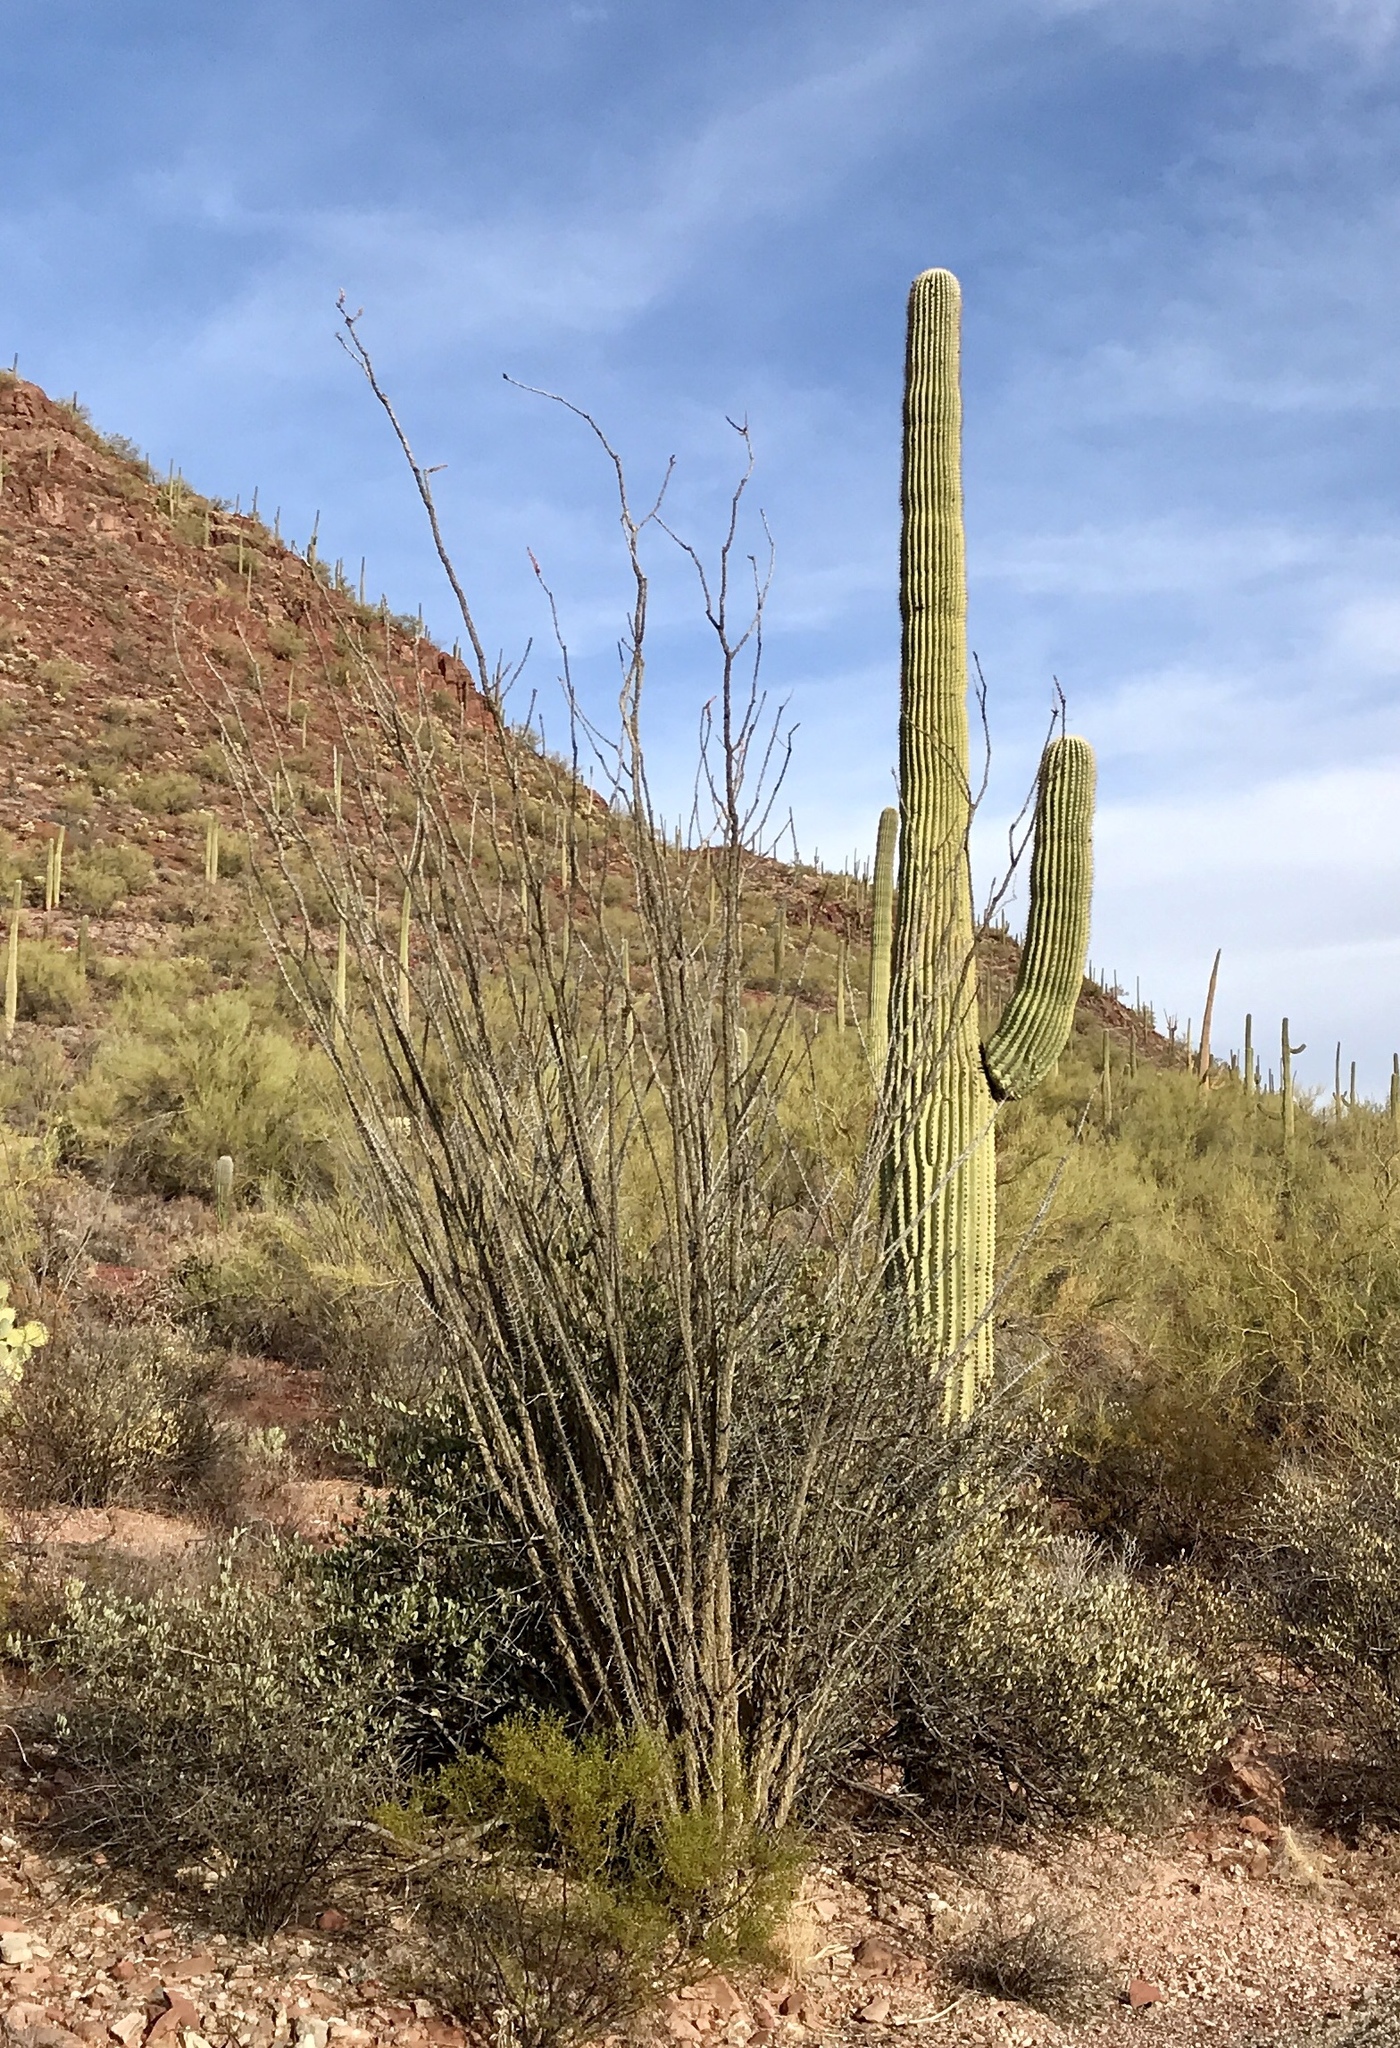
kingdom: Plantae
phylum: Tracheophyta
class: Magnoliopsida
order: Ericales
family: Fouquieriaceae
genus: Fouquieria
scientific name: Fouquieria splendens
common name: Vine-cactus
